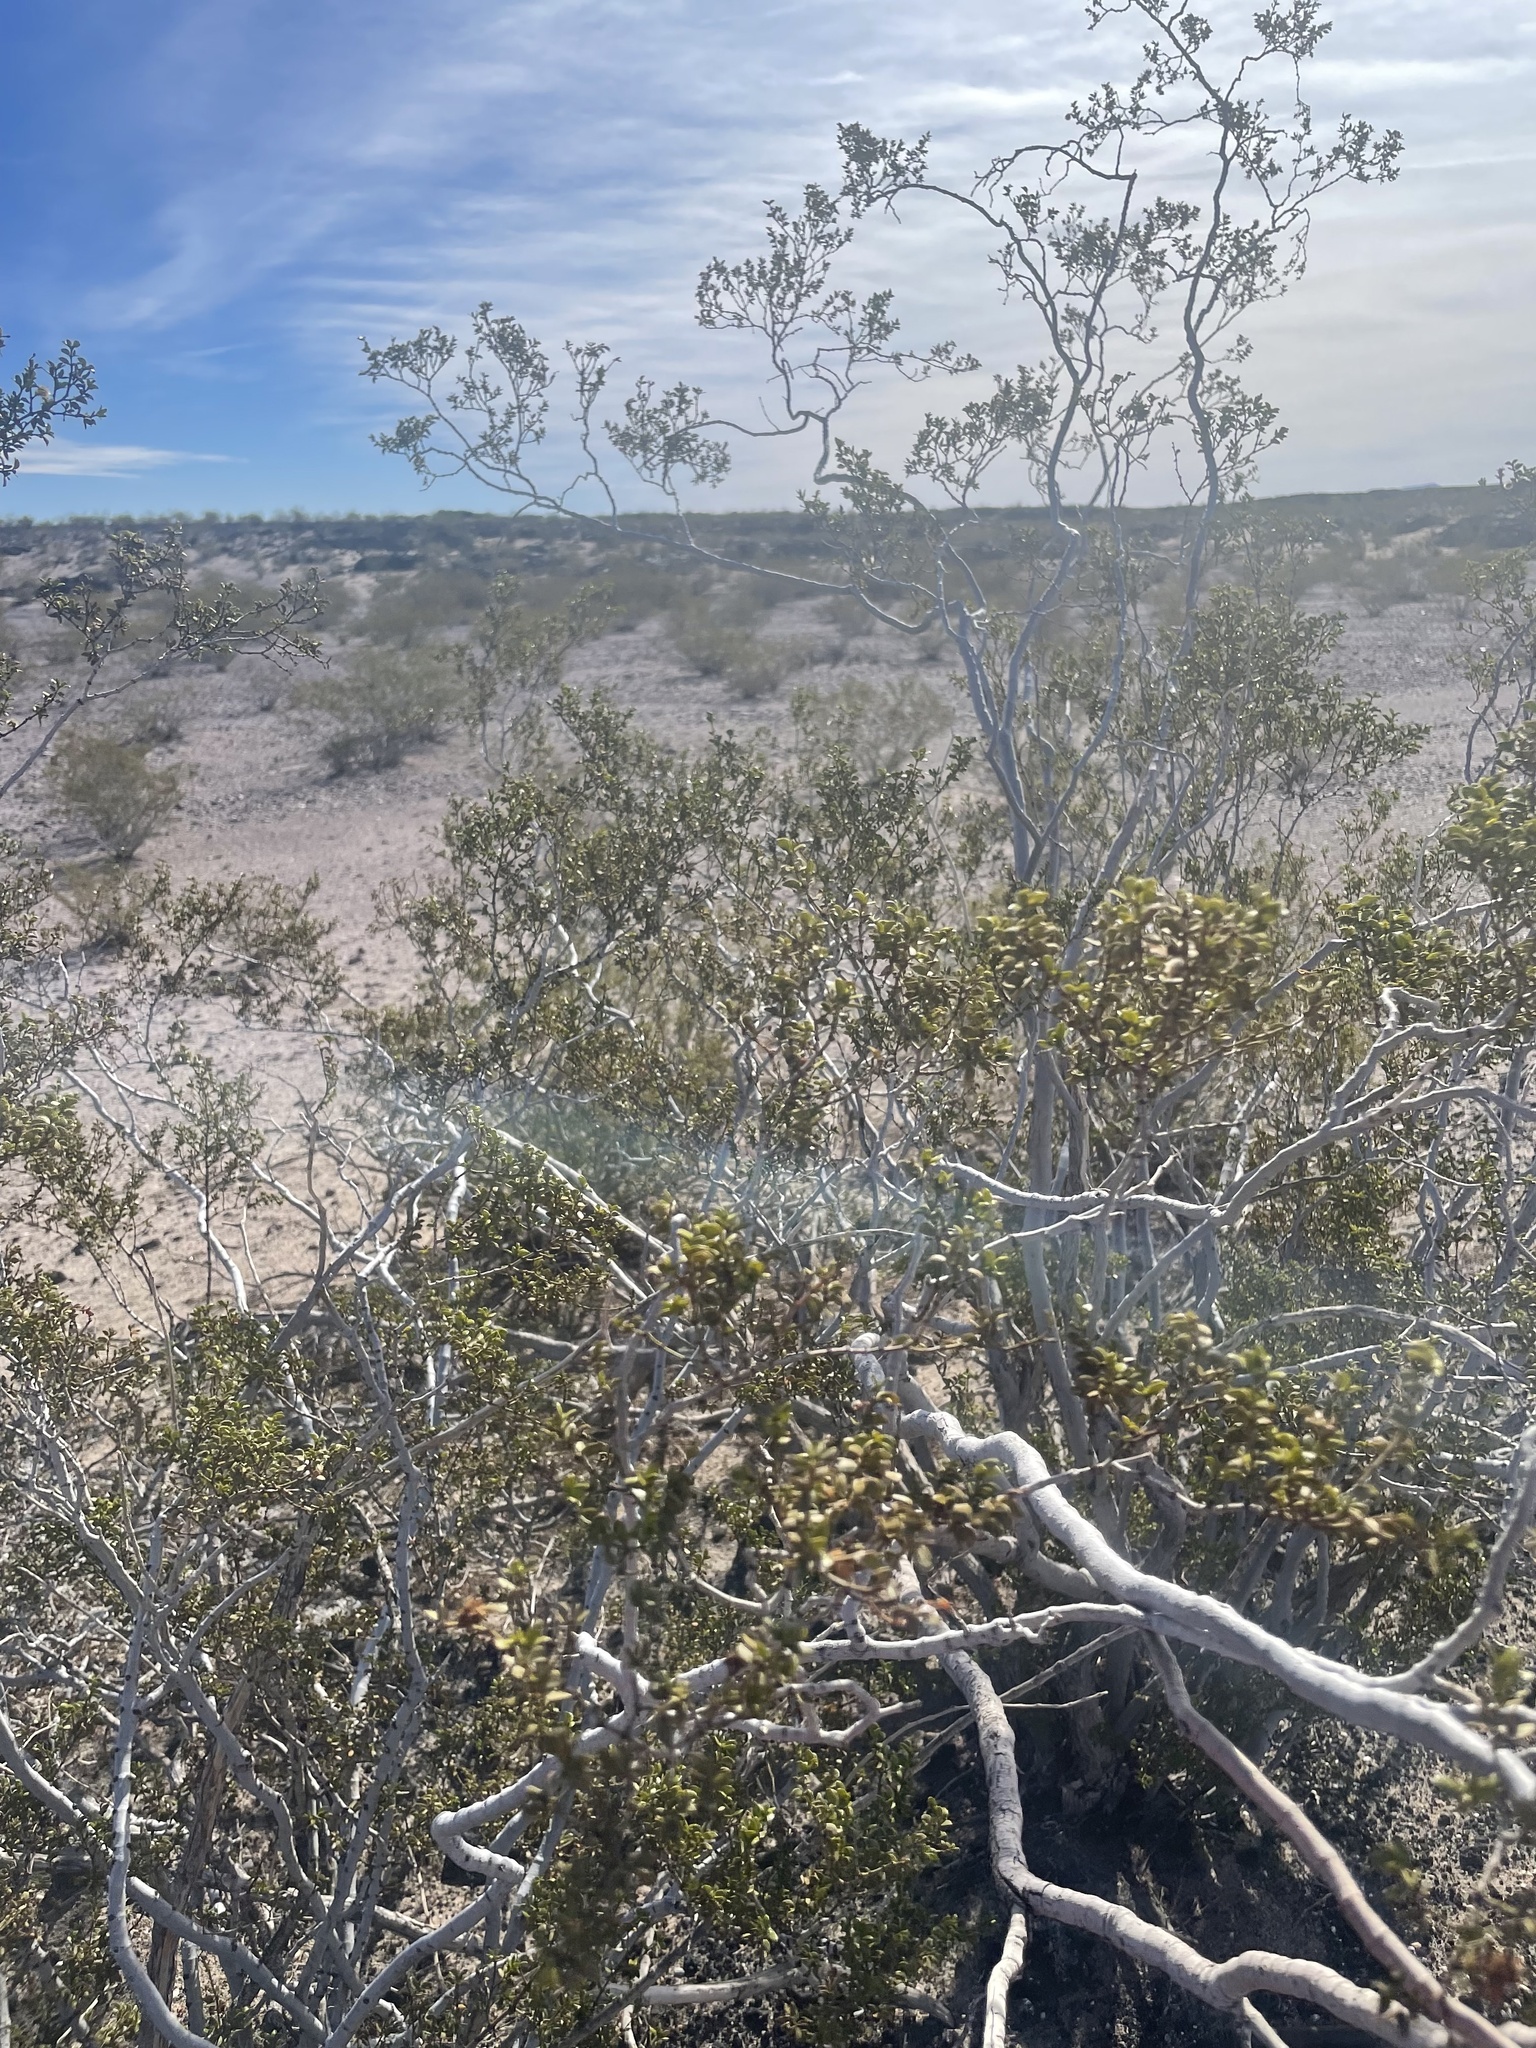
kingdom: Plantae
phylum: Tracheophyta
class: Magnoliopsida
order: Zygophyllales
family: Zygophyllaceae
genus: Larrea
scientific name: Larrea tridentata
